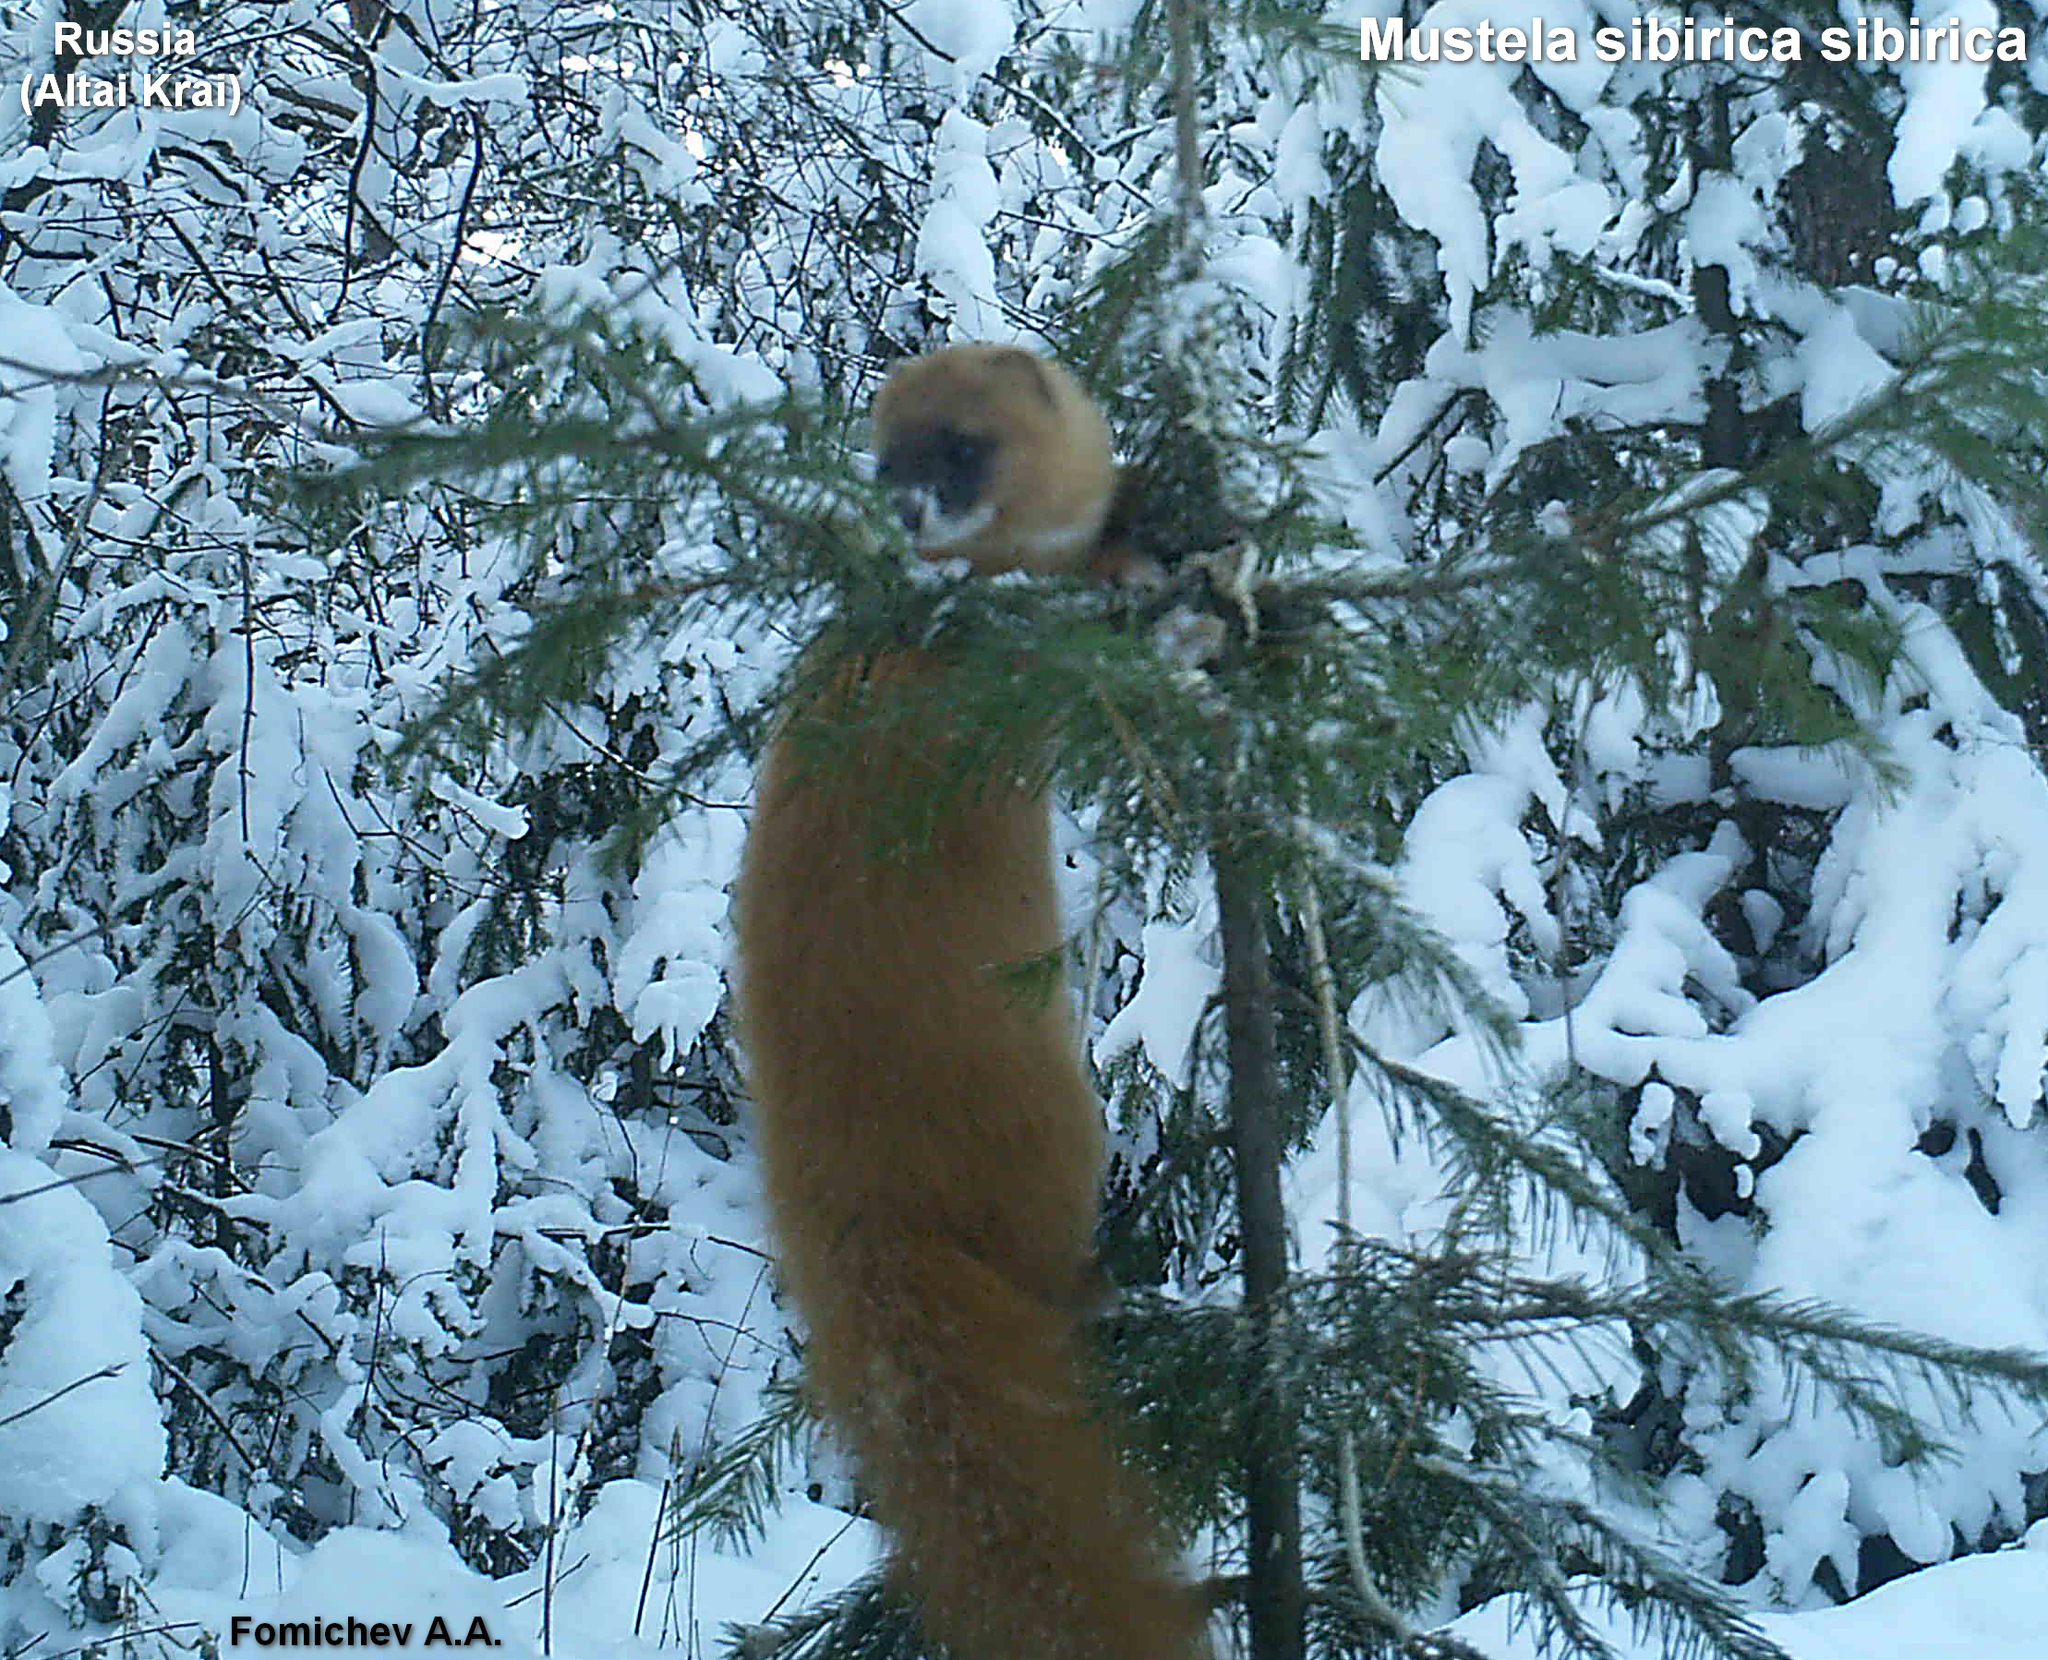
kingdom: Animalia
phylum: Chordata
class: Mammalia
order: Carnivora
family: Mustelidae
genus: Mustela
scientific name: Mustela sibirica
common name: Siberian weasel
